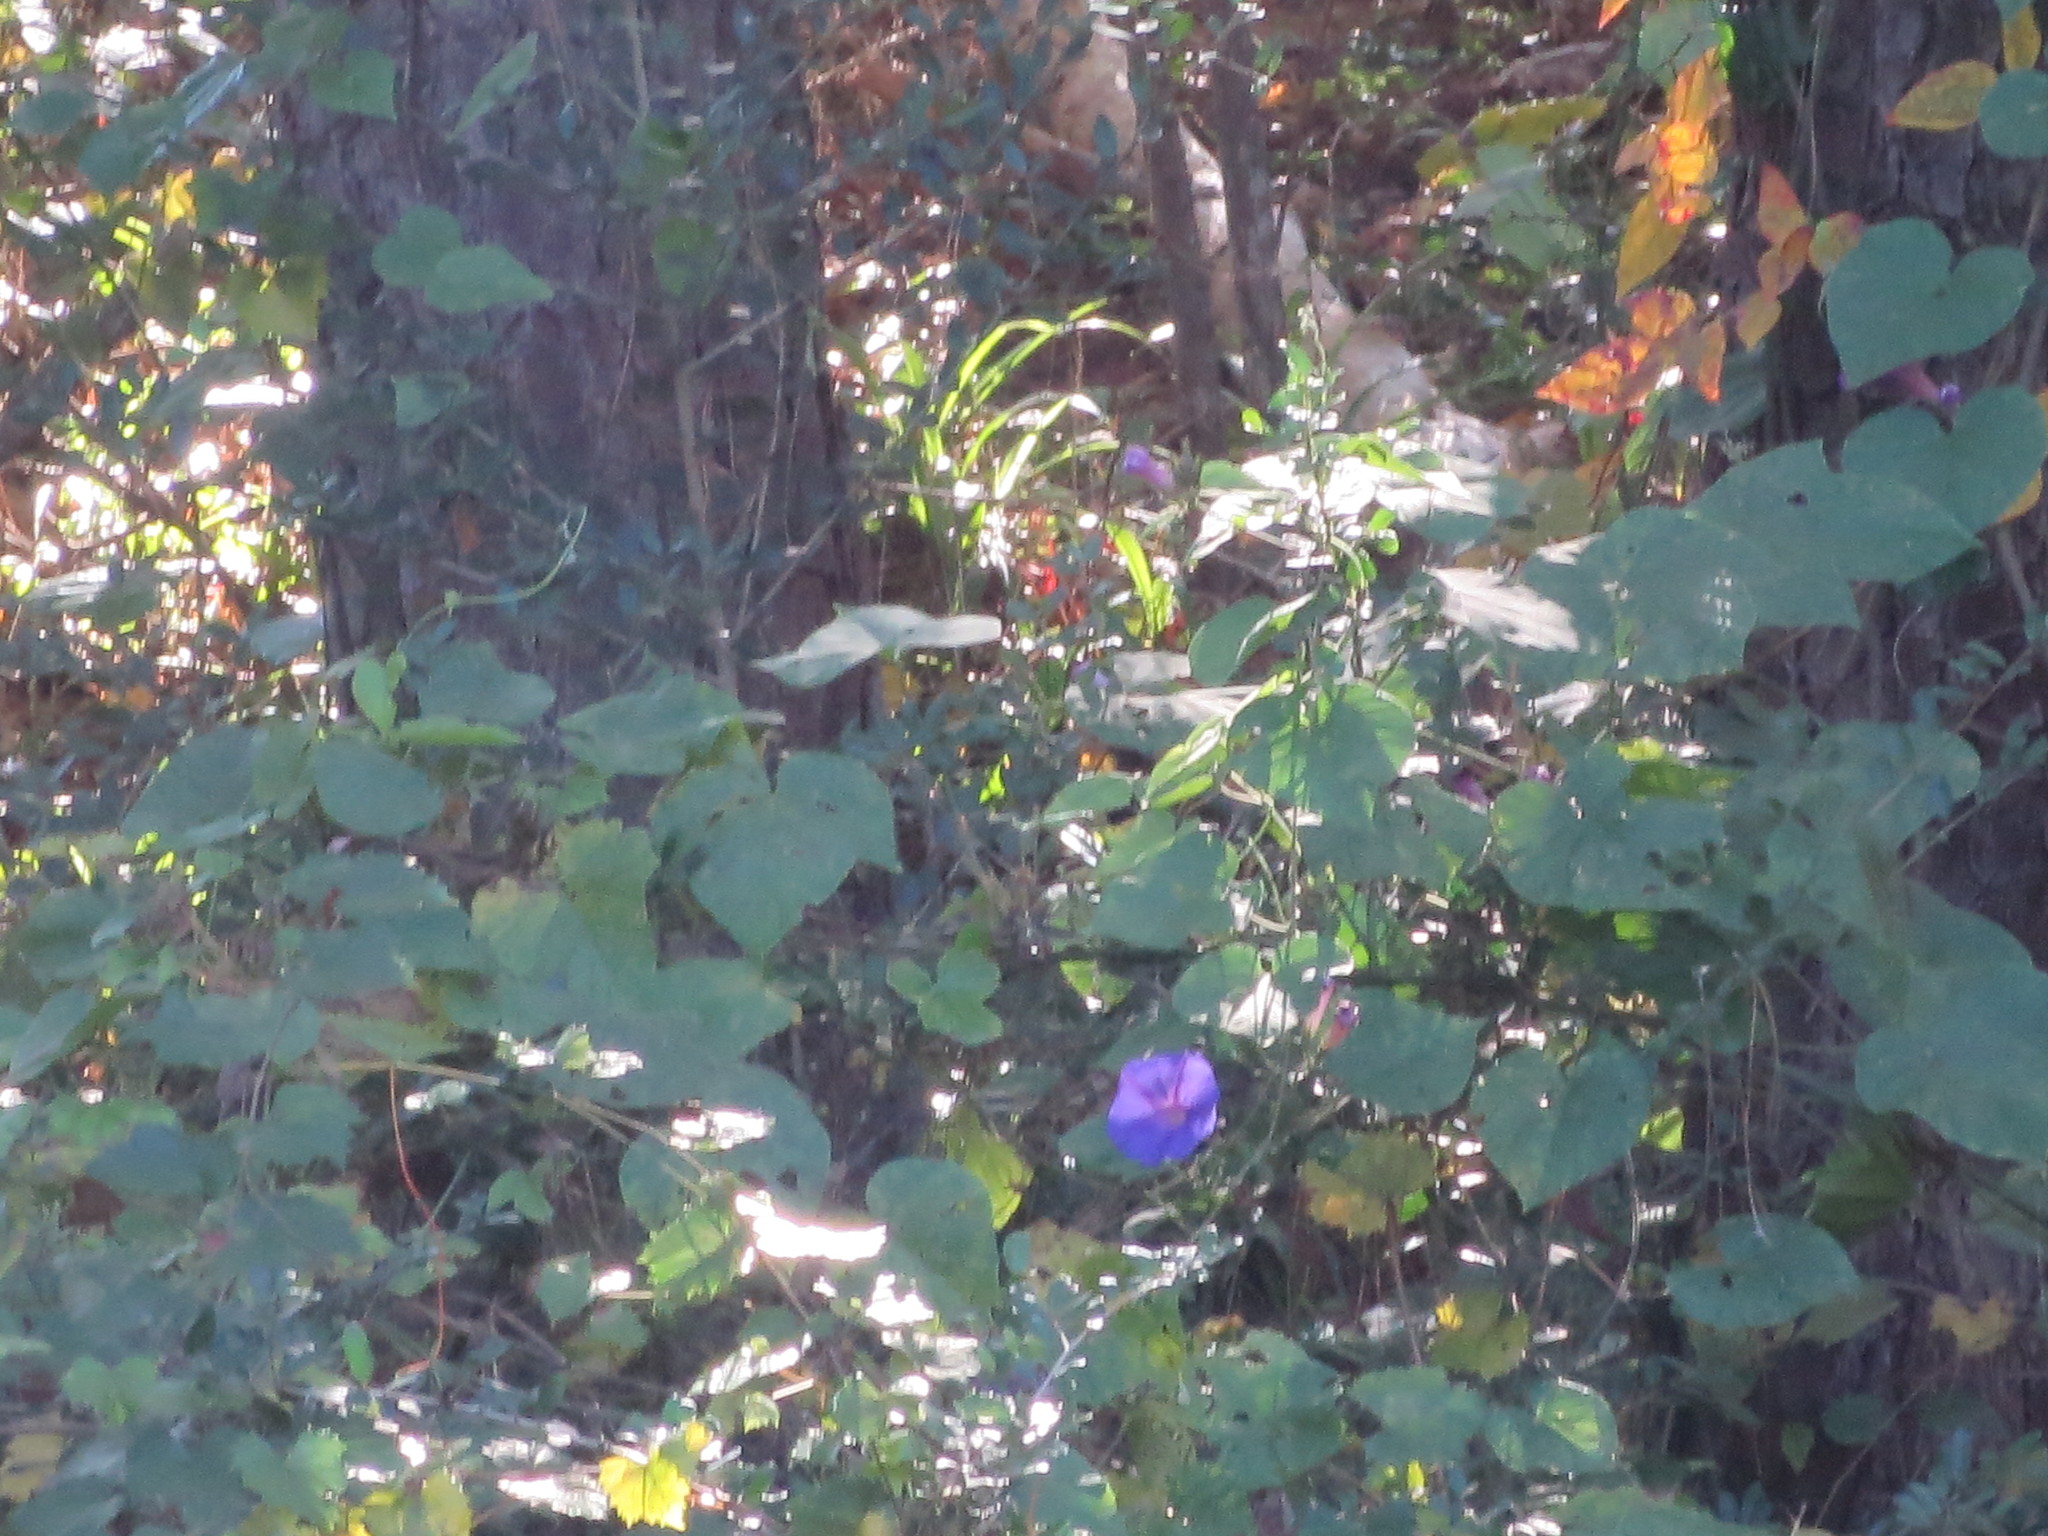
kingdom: Plantae
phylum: Tracheophyta
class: Magnoliopsida
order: Solanales
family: Convolvulaceae
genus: Ipomoea
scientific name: Ipomoea indica
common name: Blue dawnflower
